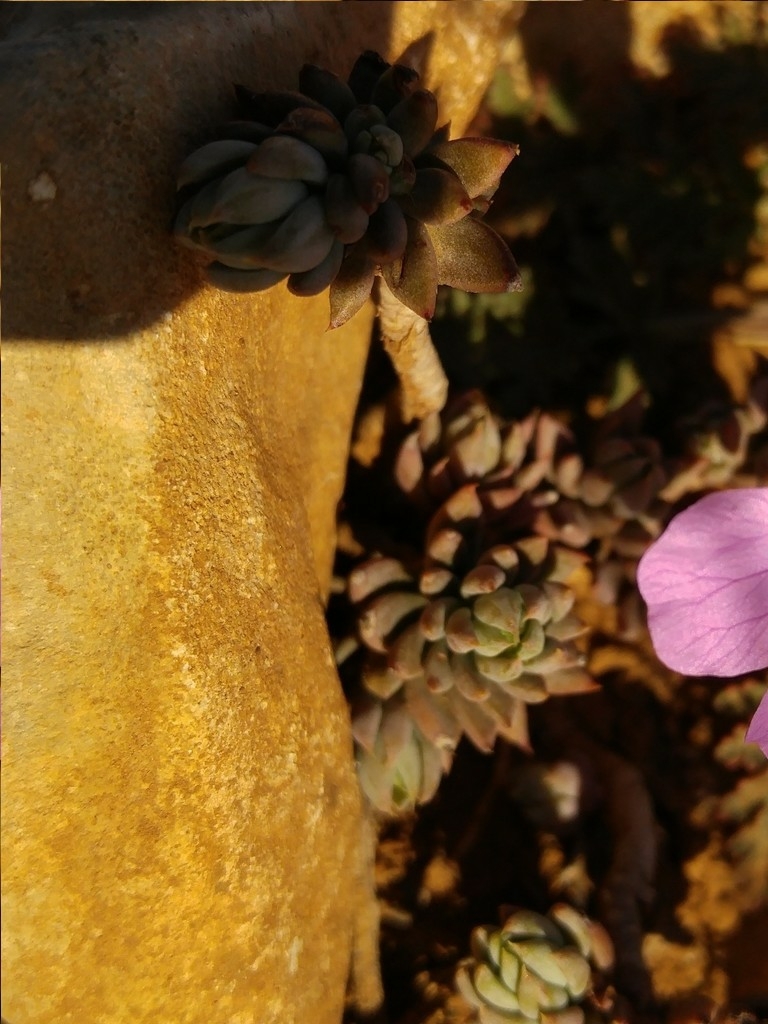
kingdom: Plantae
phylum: Tracheophyta
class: Magnoliopsida
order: Saxifragales
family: Crassulaceae
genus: Petrosedum
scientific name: Petrosedum sediforme
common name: Pale stonecrop
